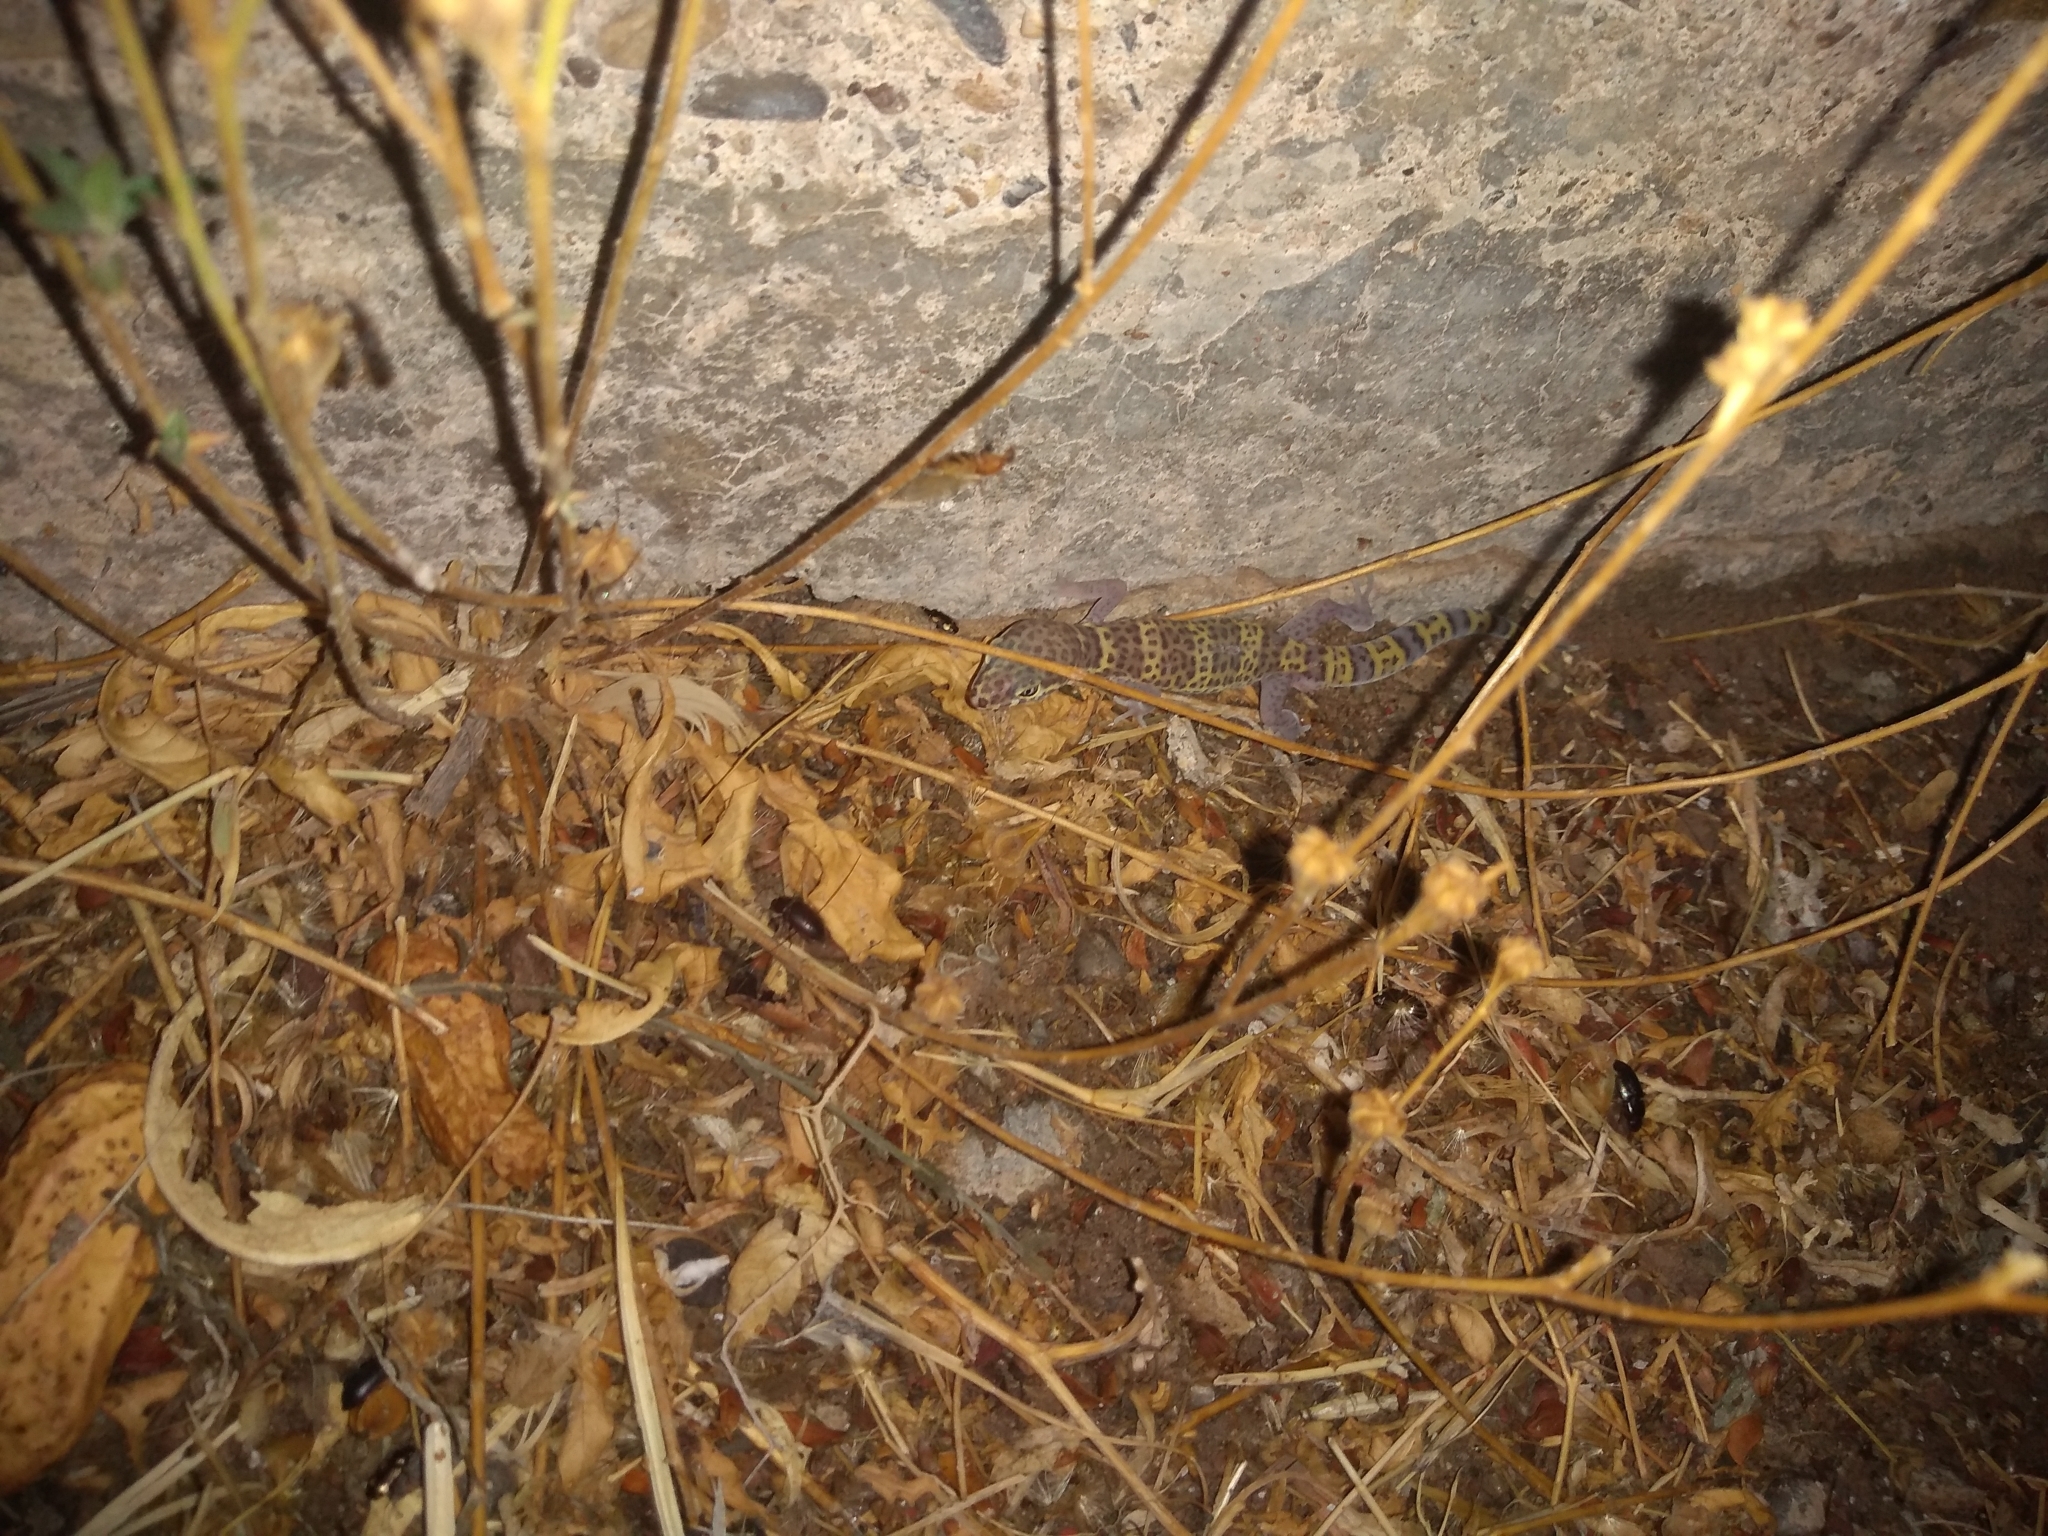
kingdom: Animalia
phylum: Chordata
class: Squamata
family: Eublepharidae
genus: Coleonyx
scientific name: Coleonyx brevis
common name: Texas banded gecko
